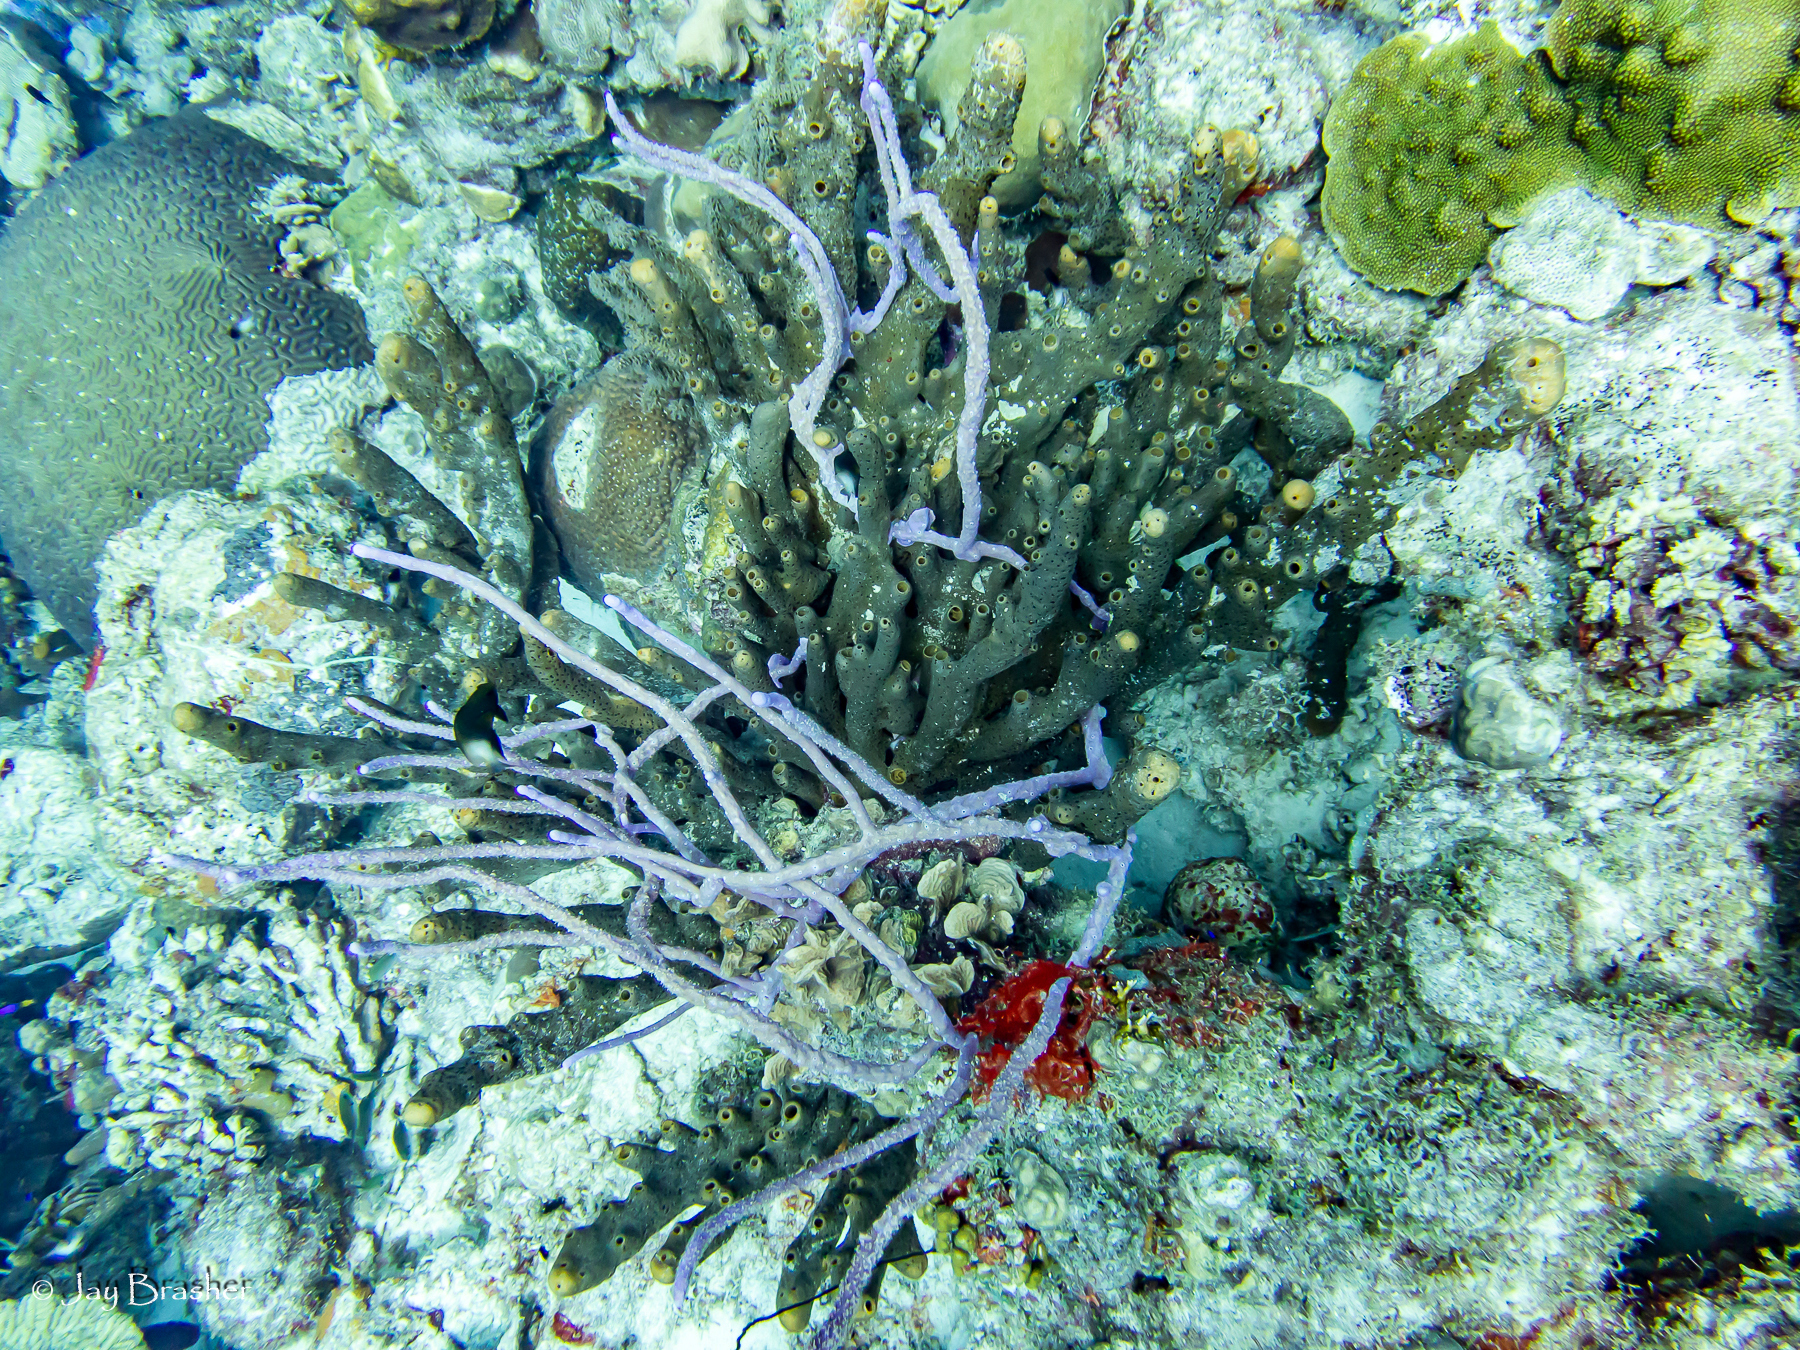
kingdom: Animalia
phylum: Porifera
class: Demospongiae
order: Verongiida
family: Aplysinidae
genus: Aplysina
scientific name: Aplysina cauliformis
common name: Branching candle sponge
